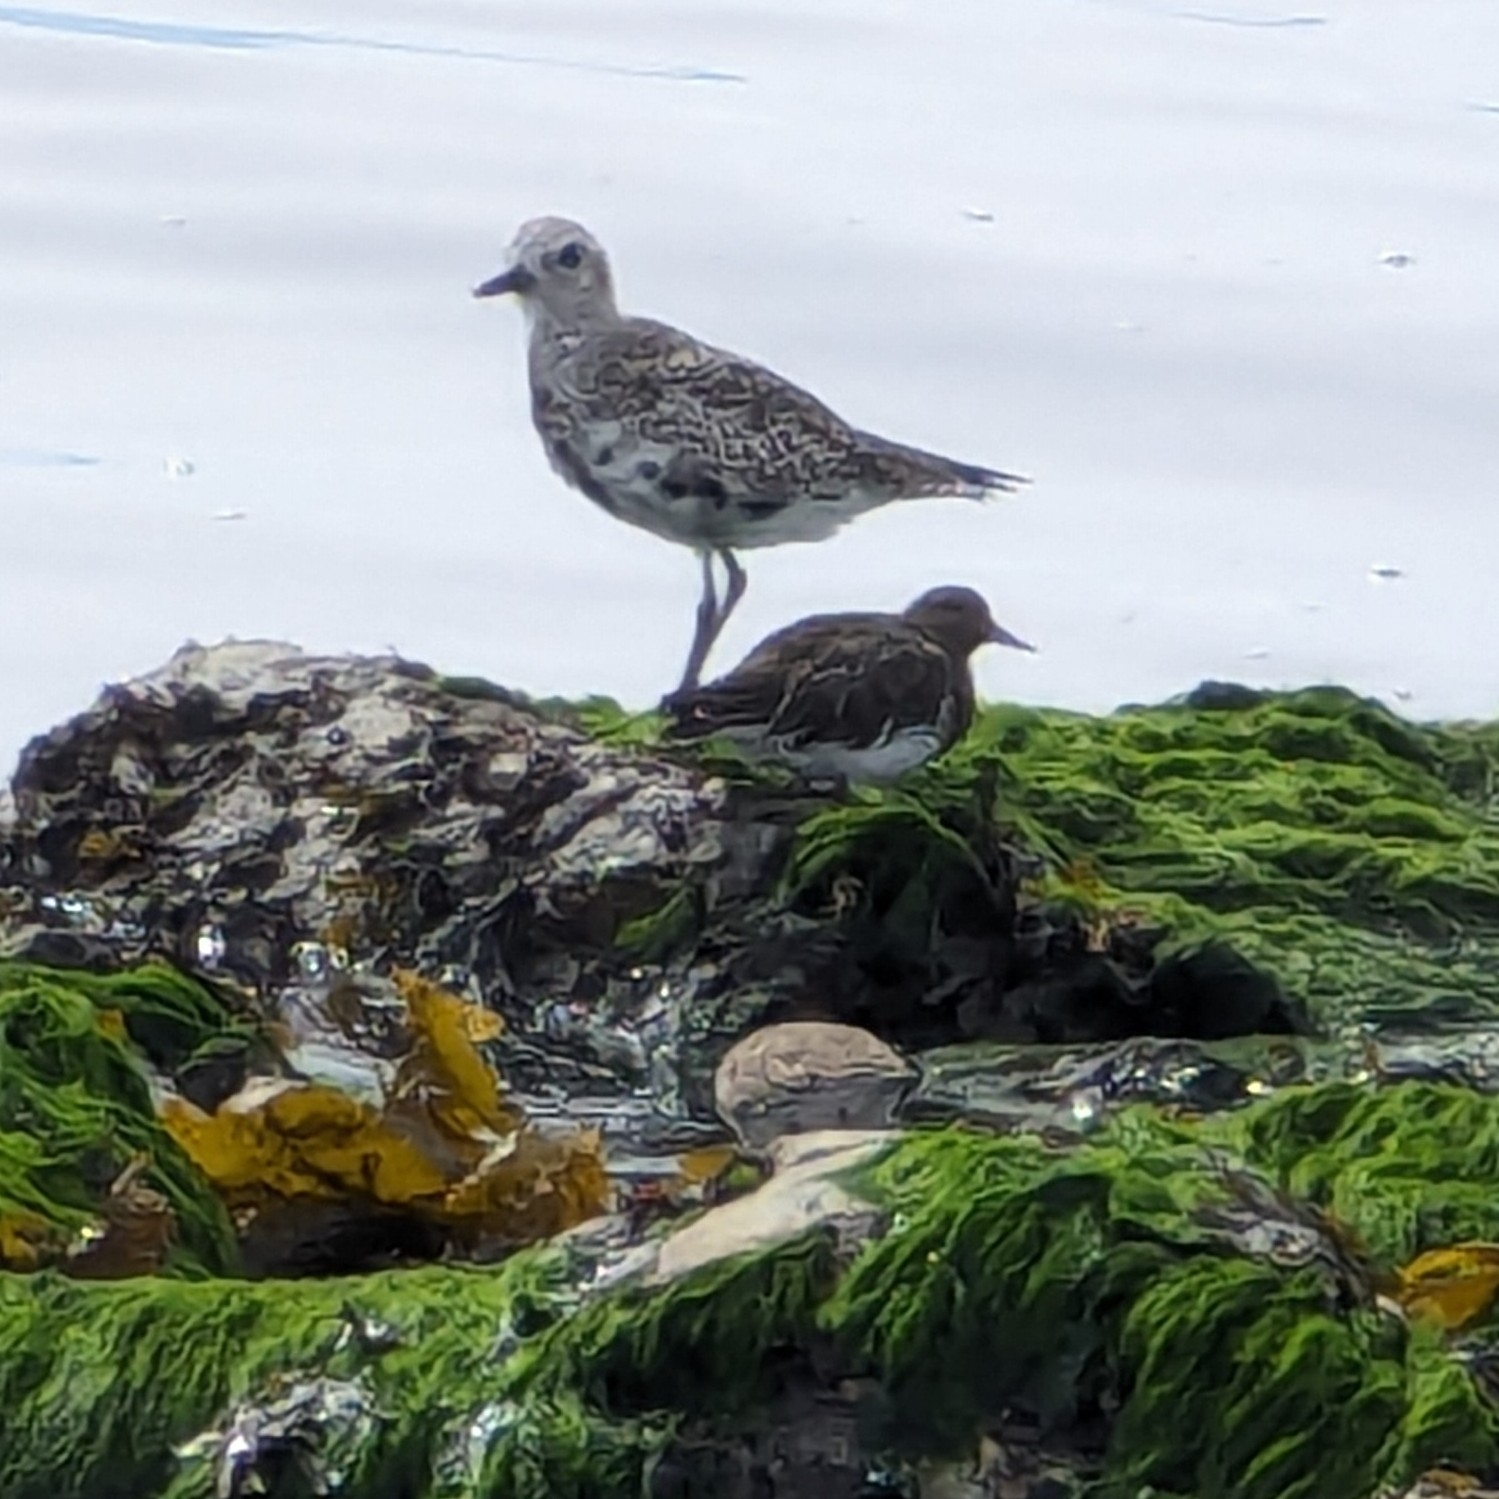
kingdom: Animalia
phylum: Chordata
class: Aves
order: Charadriiformes
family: Scolopacidae
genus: Arenaria
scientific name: Arenaria melanocephala
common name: Black turnstone
